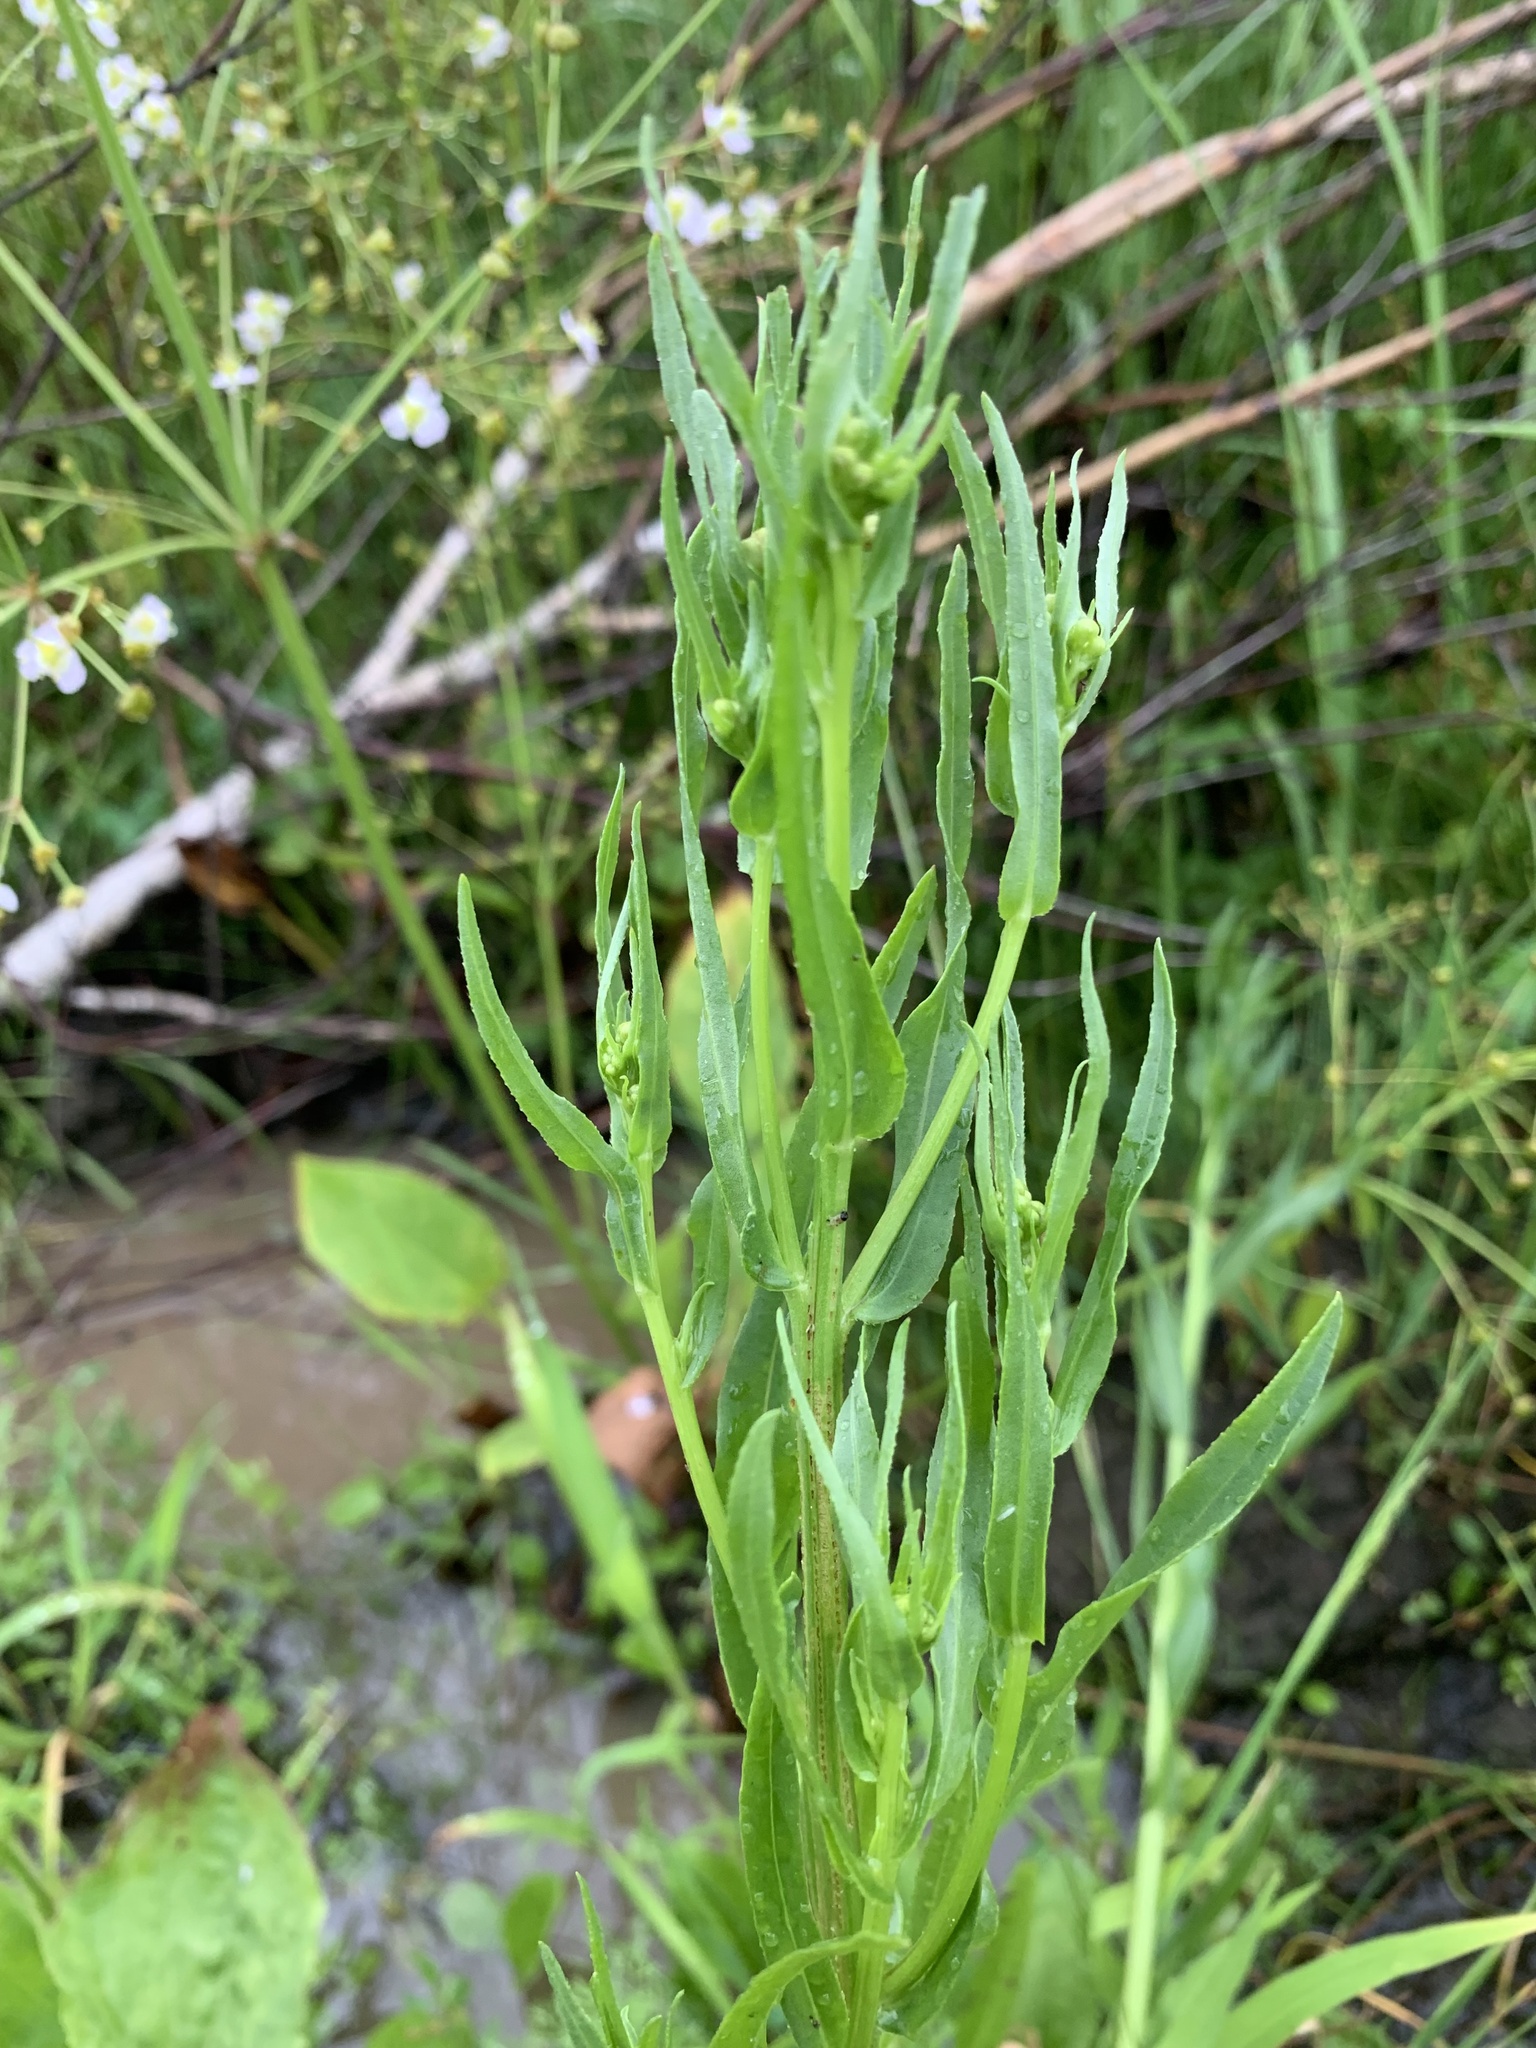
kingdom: Plantae
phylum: Tracheophyta
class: Magnoliopsida
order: Asterales
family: Asteraceae
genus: Tripolium
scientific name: Tripolium pannonicum
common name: Sea aster
